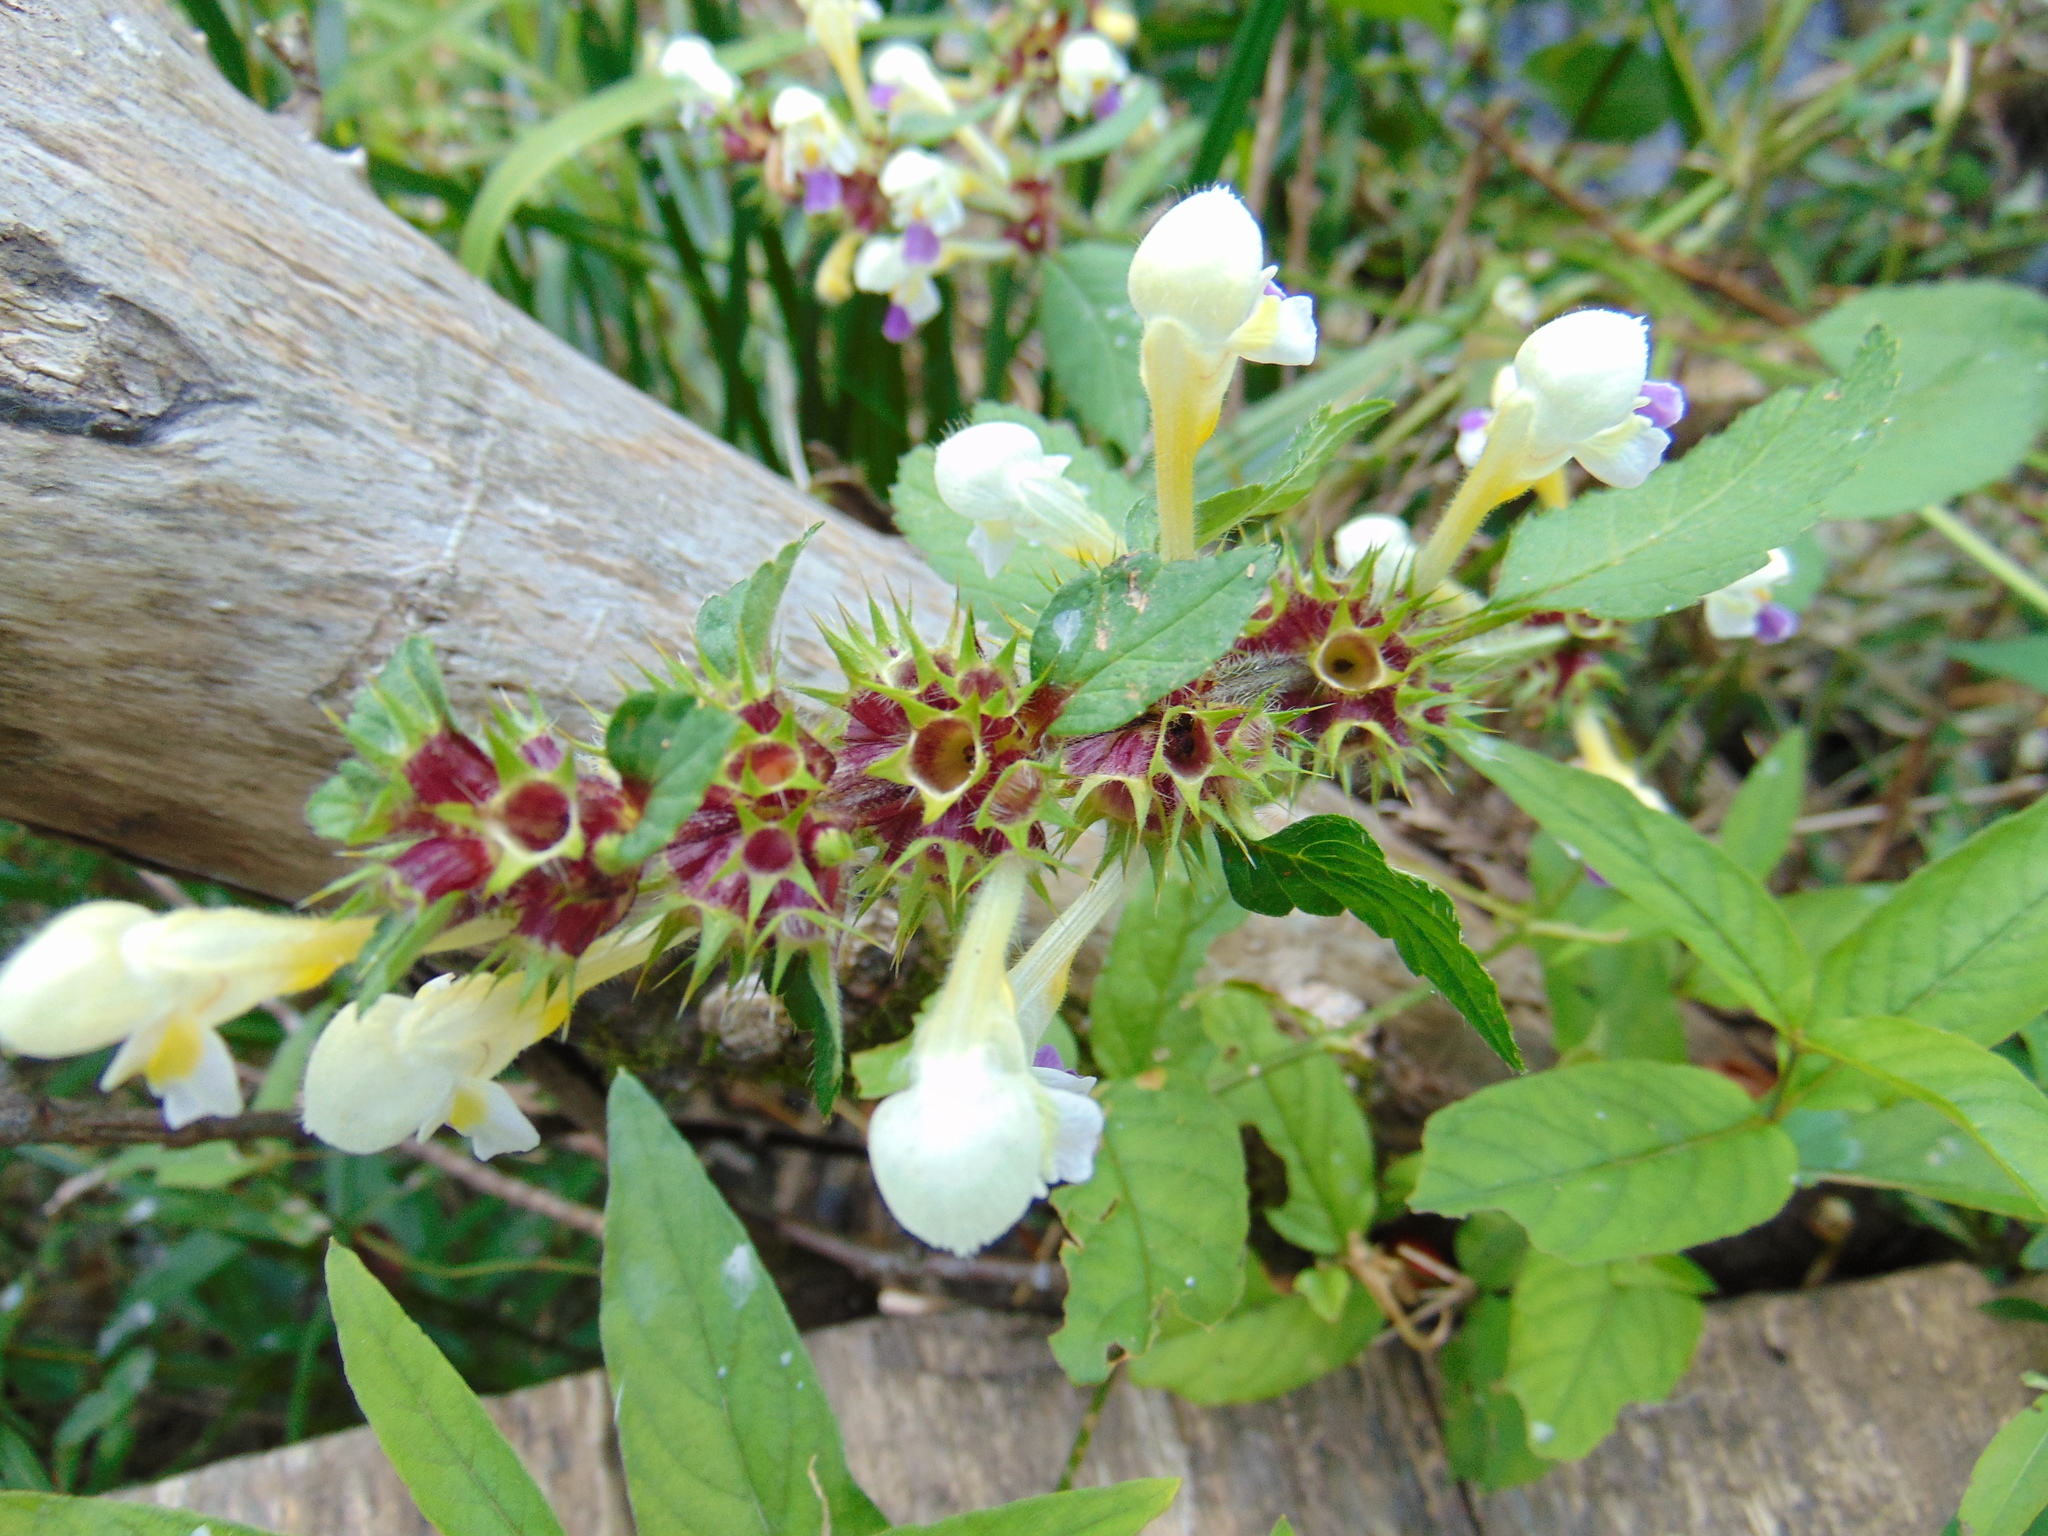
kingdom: Plantae
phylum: Tracheophyta
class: Magnoliopsida
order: Lamiales
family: Lamiaceae
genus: Galeopsis
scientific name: Galeopsis speciosa
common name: Large-flowered hemp-nettle
